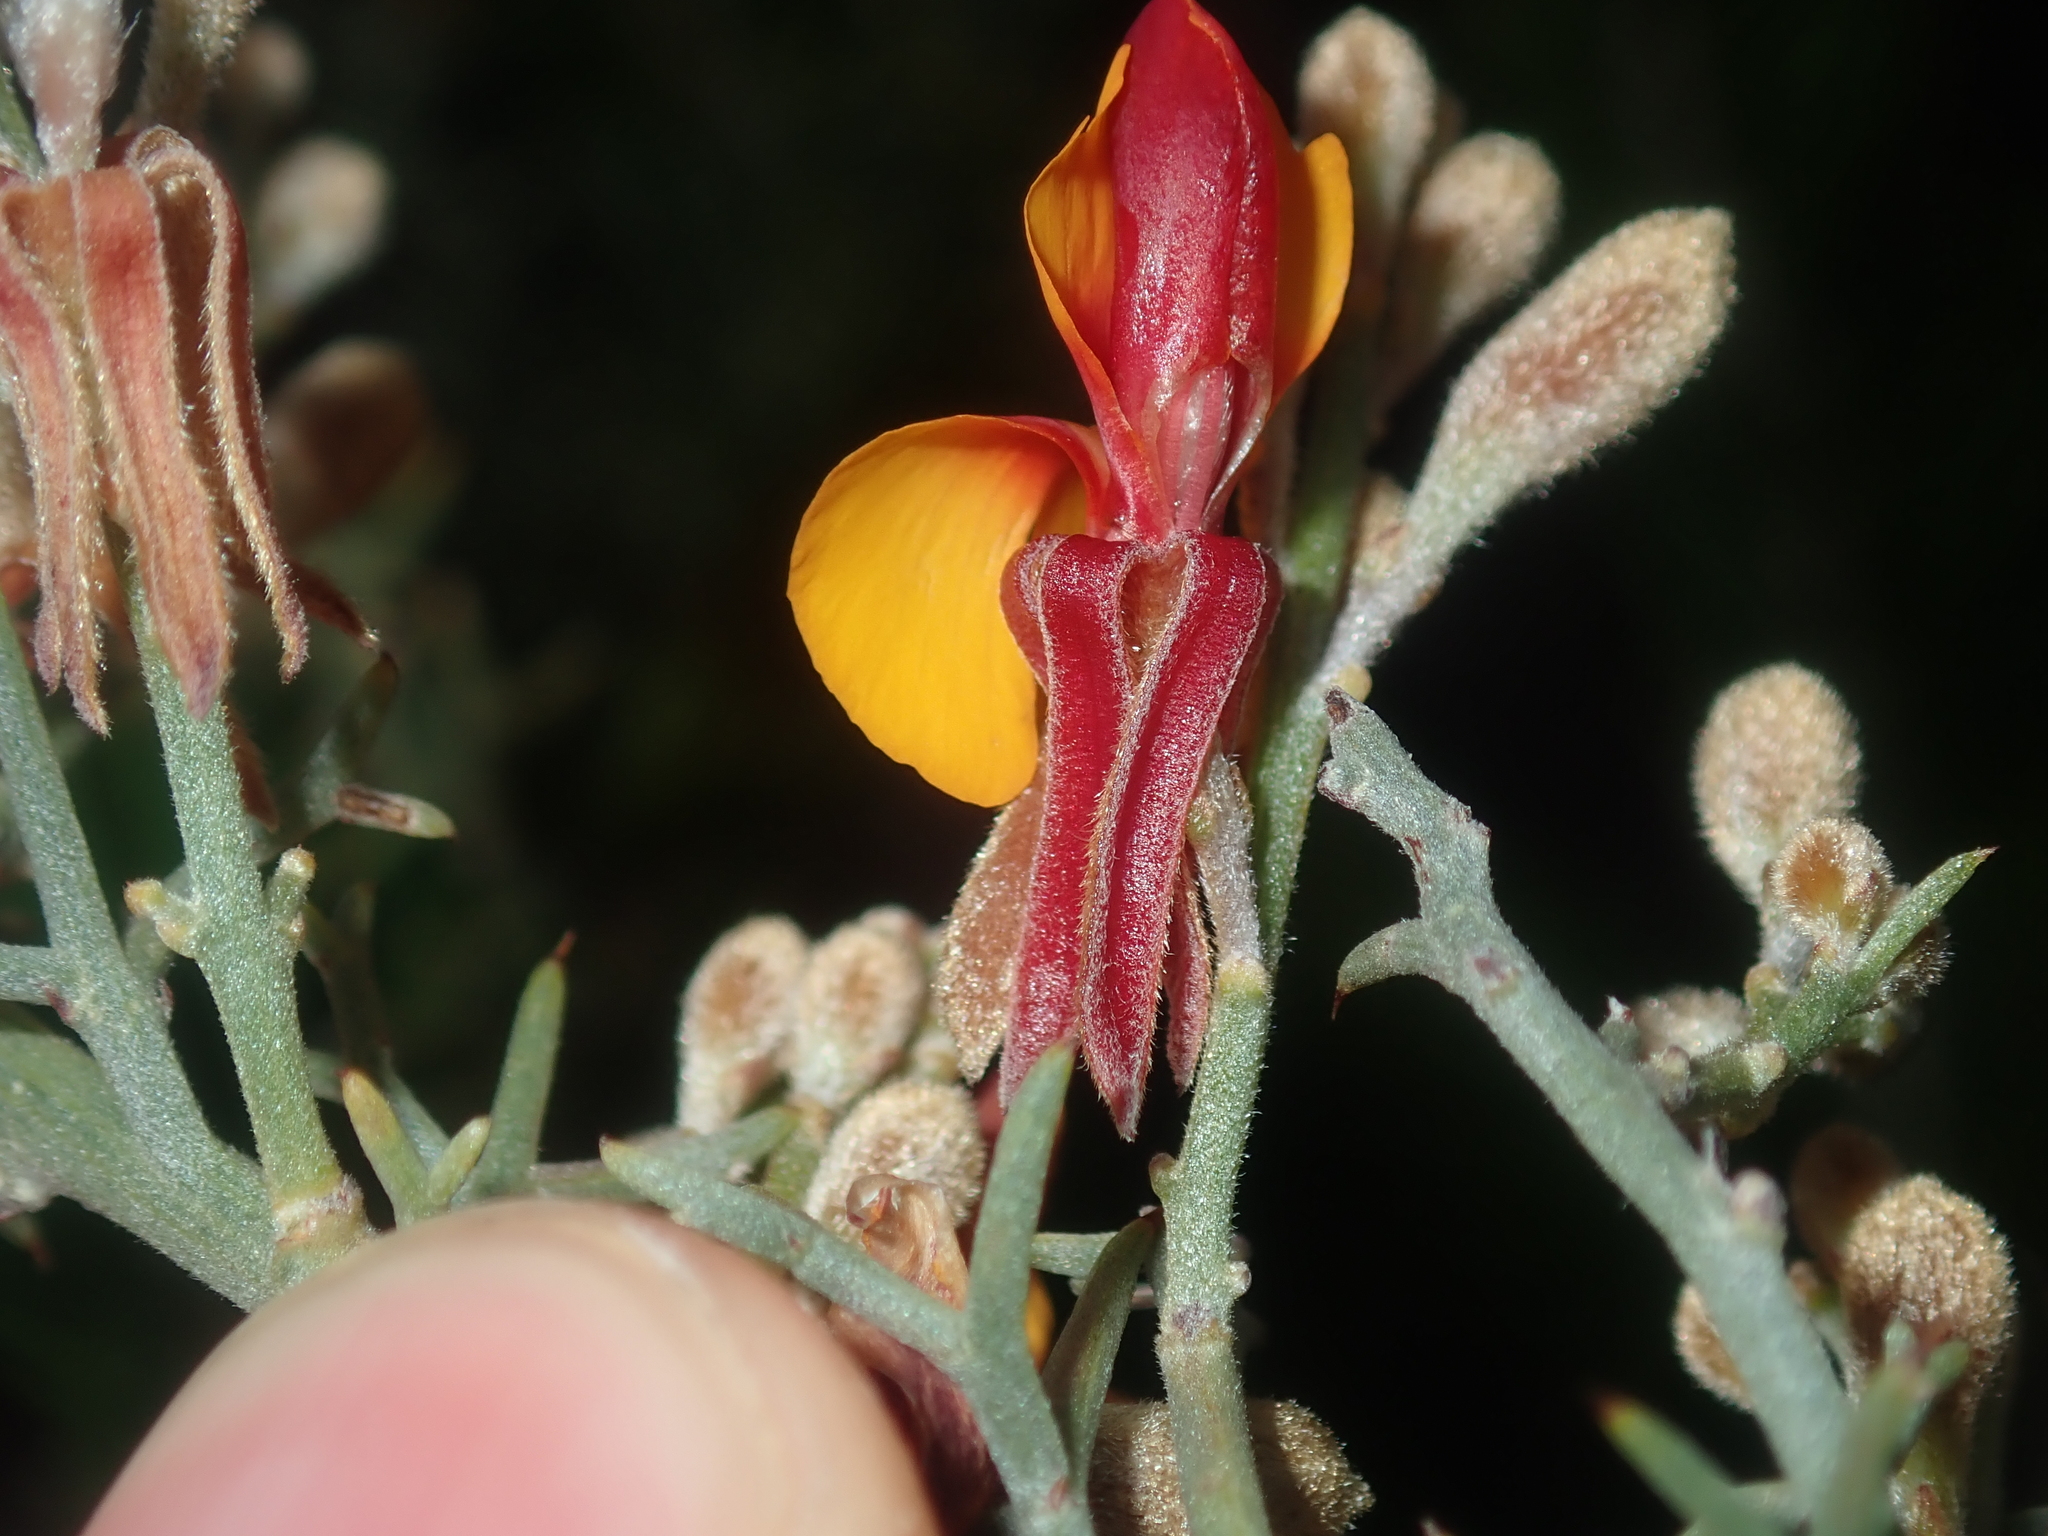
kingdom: Plantae
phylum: Tracheophyta
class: Magnoliopsida
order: Fabales
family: Fabaceae
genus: Jacksonia
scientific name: Jacksonia hakeoides
